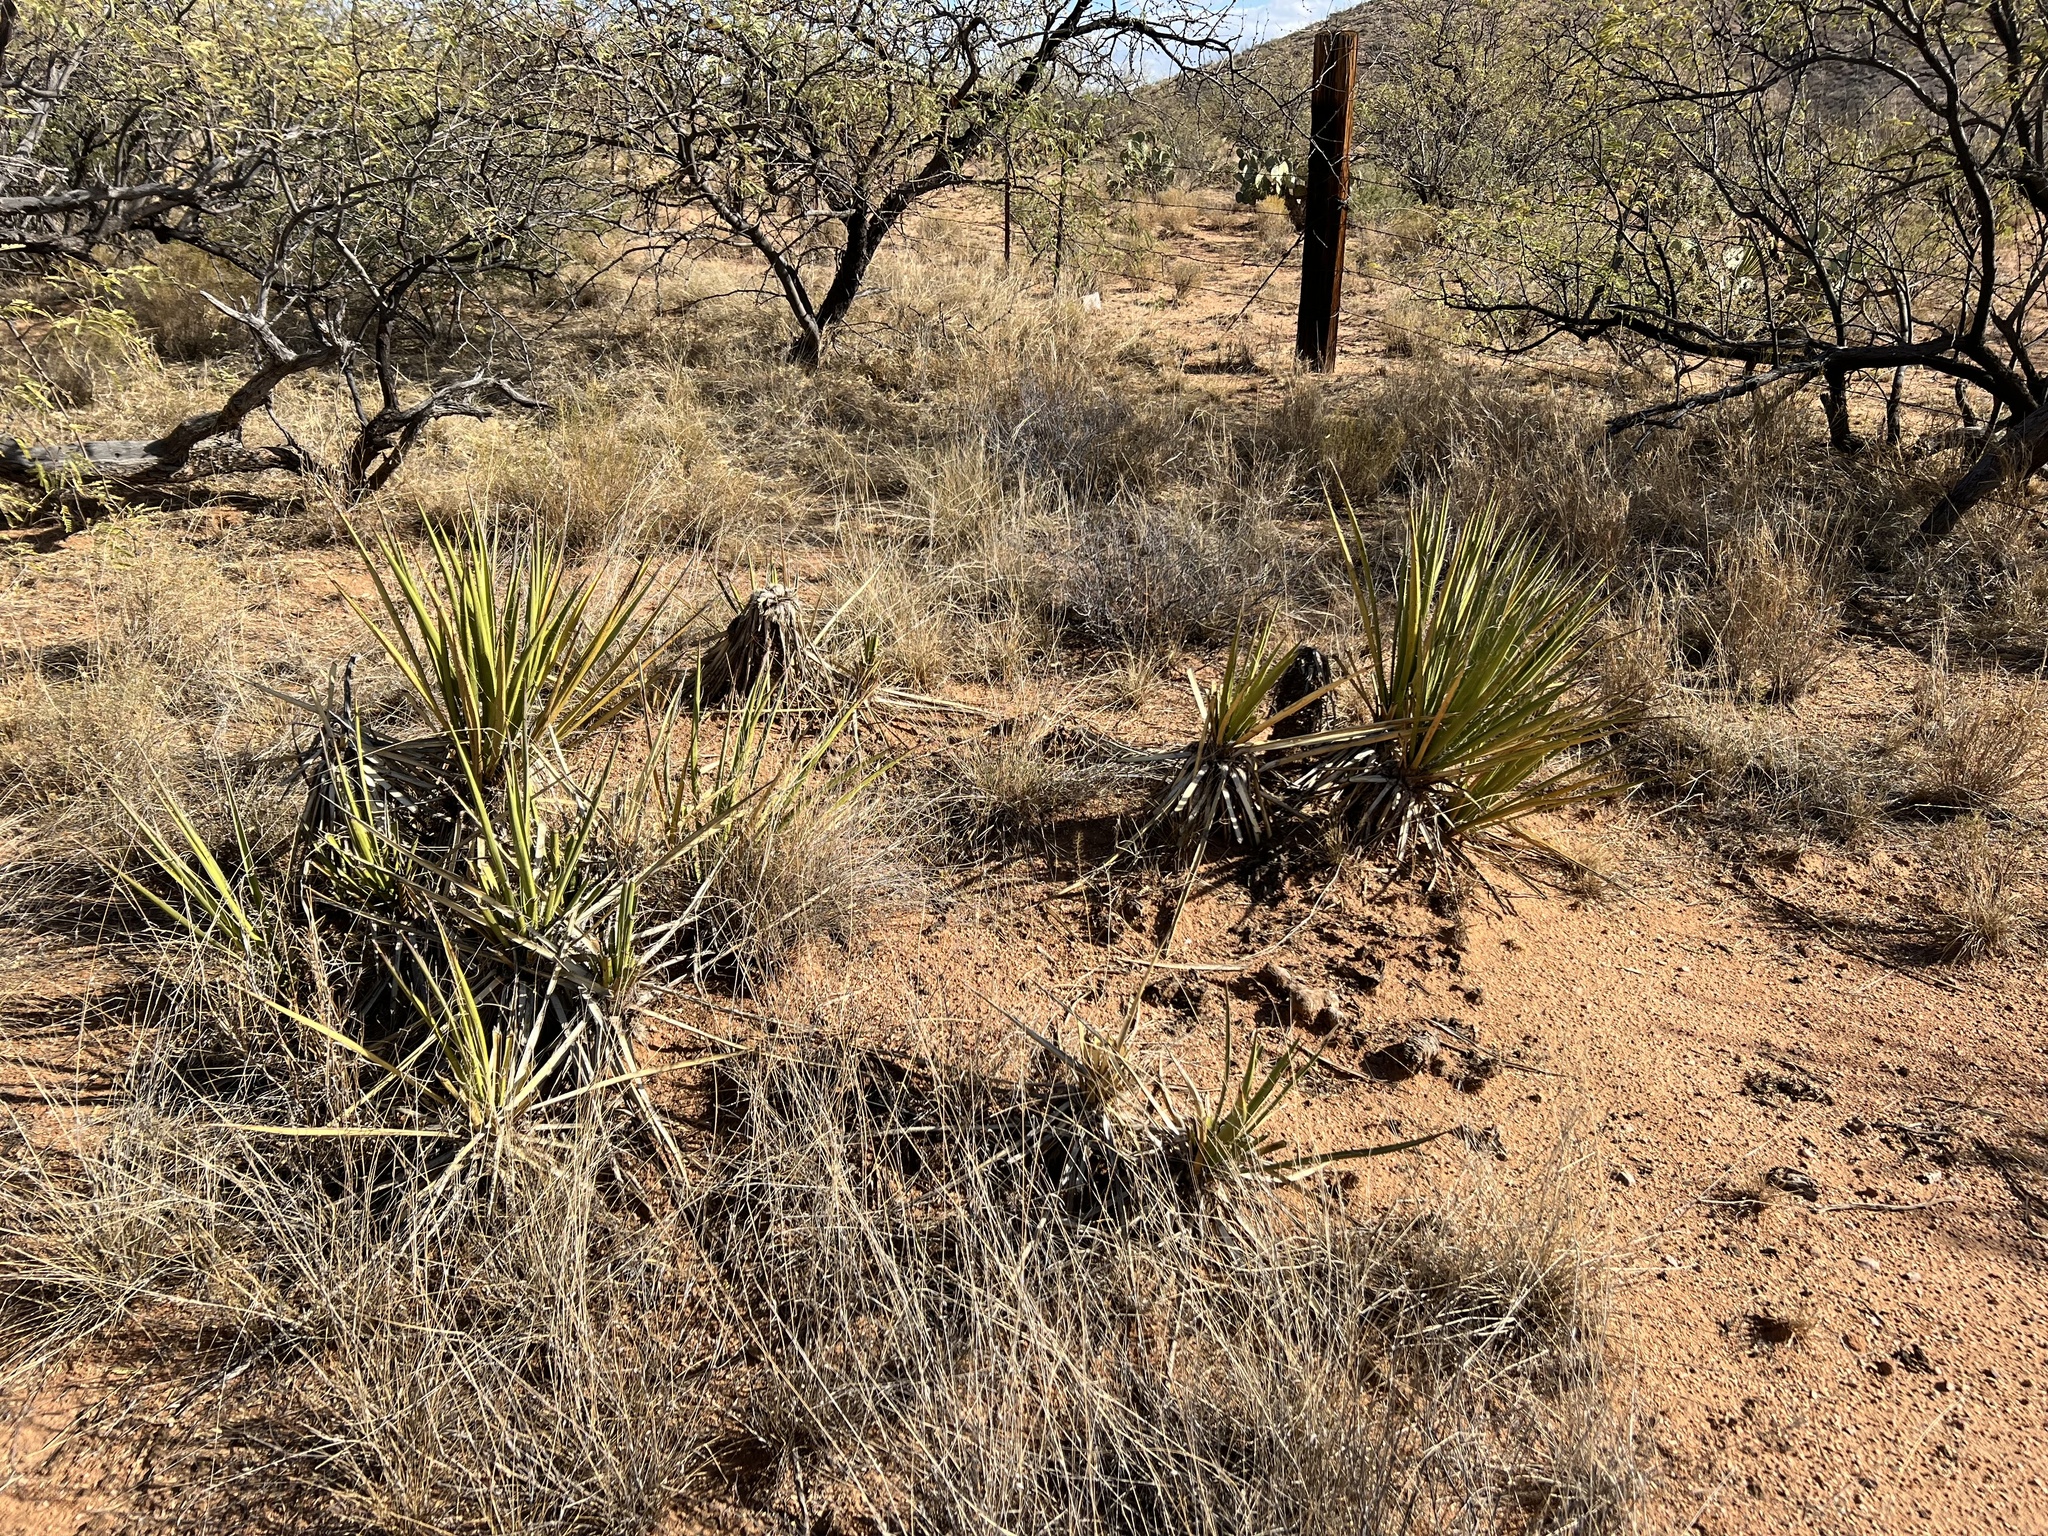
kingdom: Plantae
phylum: Tracheophyta
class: Liliopsida
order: Asparagales
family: Asparagaceae
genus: Yucca
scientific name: Yucca baccata
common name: Banana yucca
